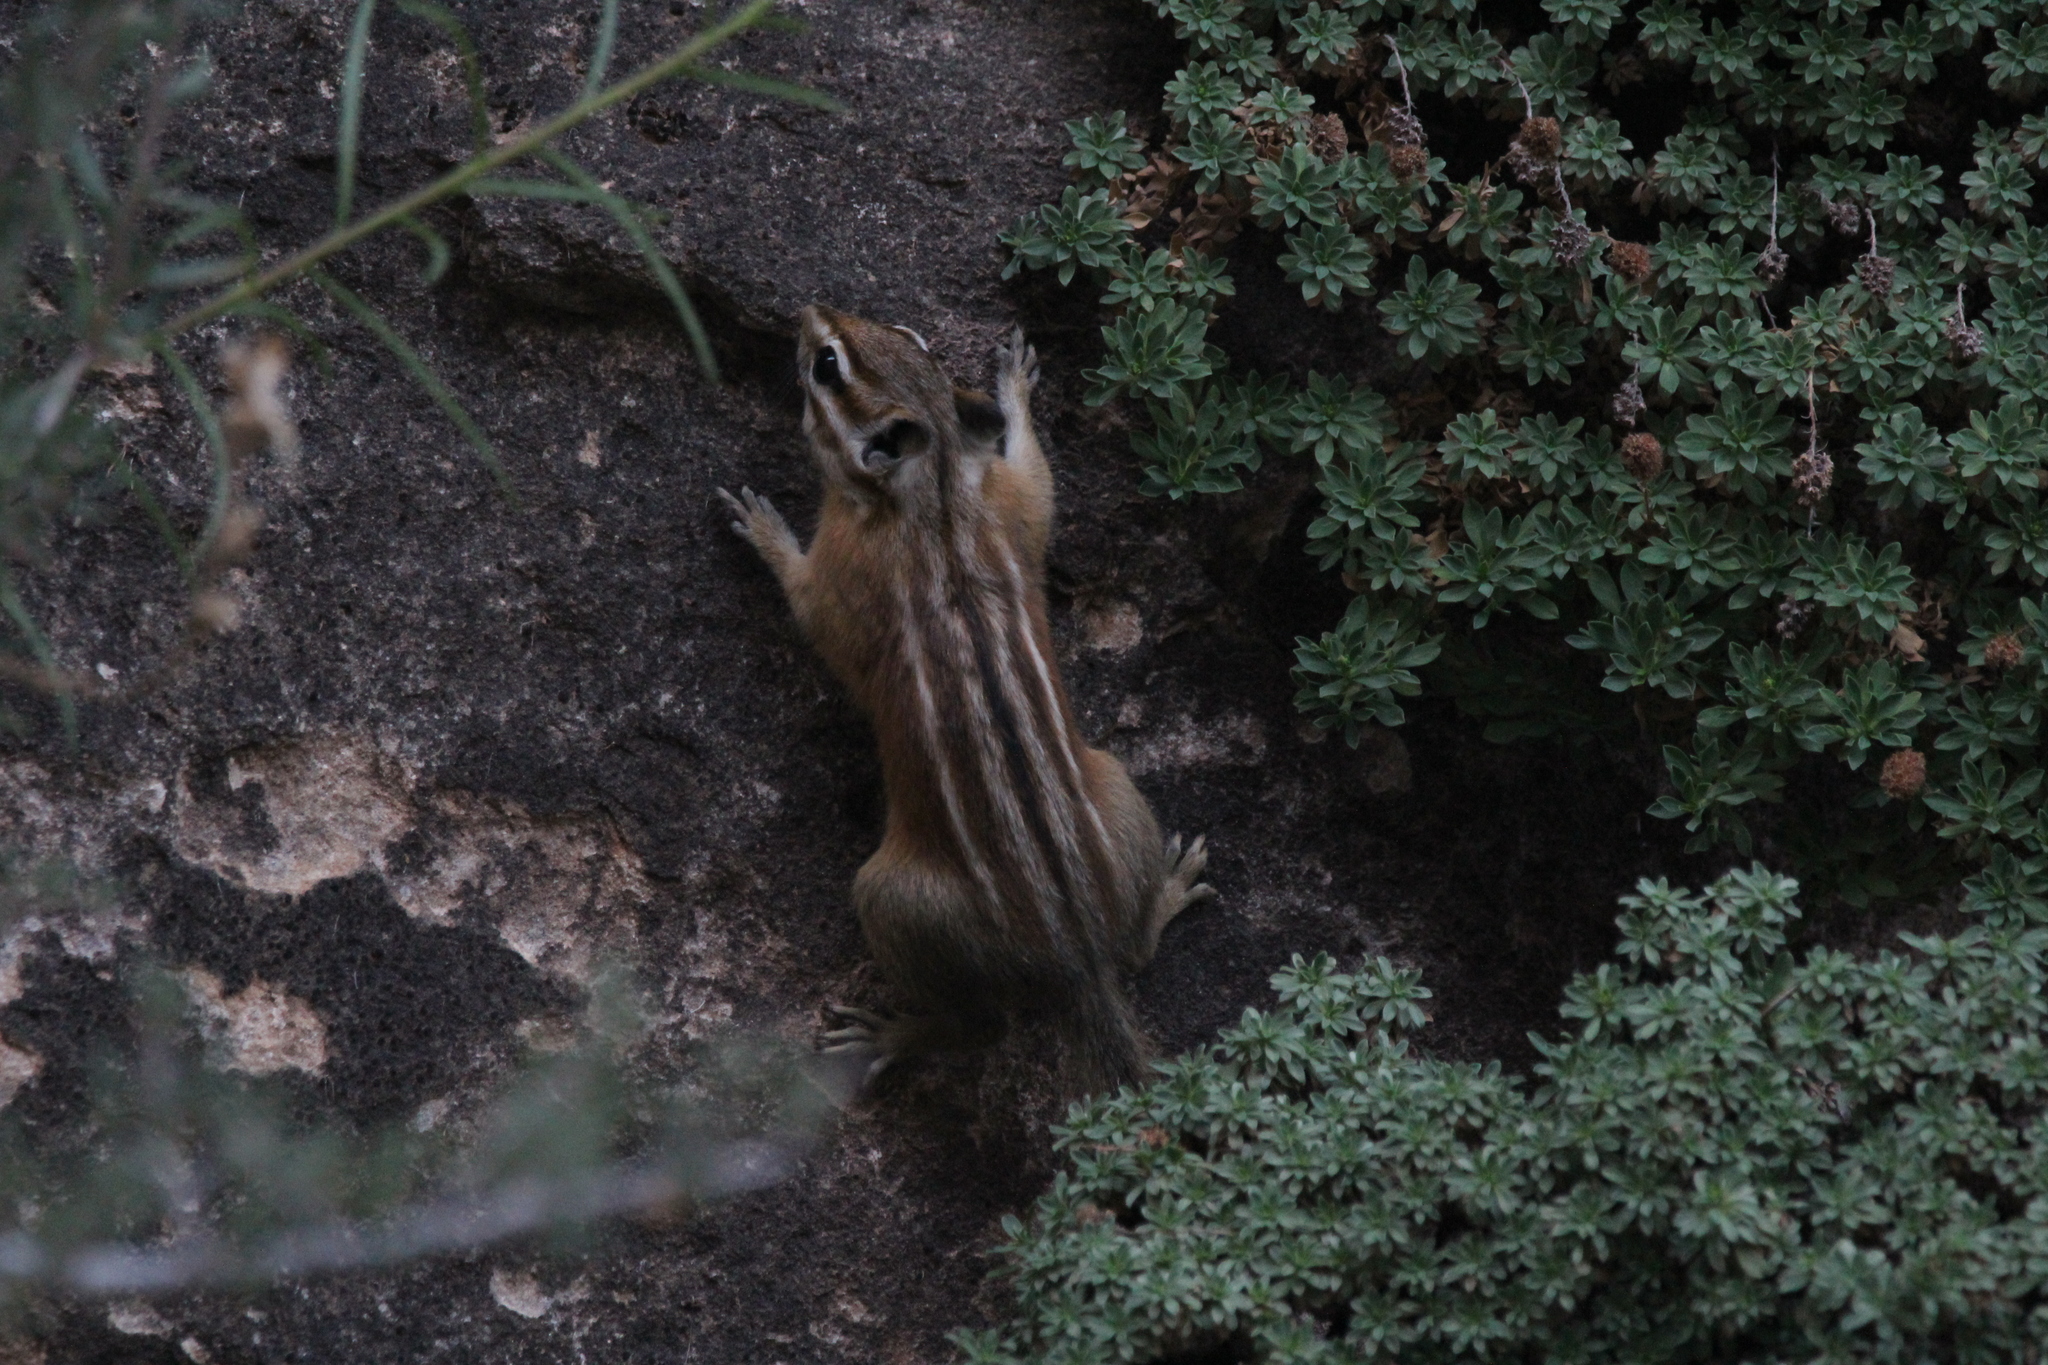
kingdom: Animalia
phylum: Chordata
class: Mammalia
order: Rodentia
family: Sciuridae
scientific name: Sciuridae
